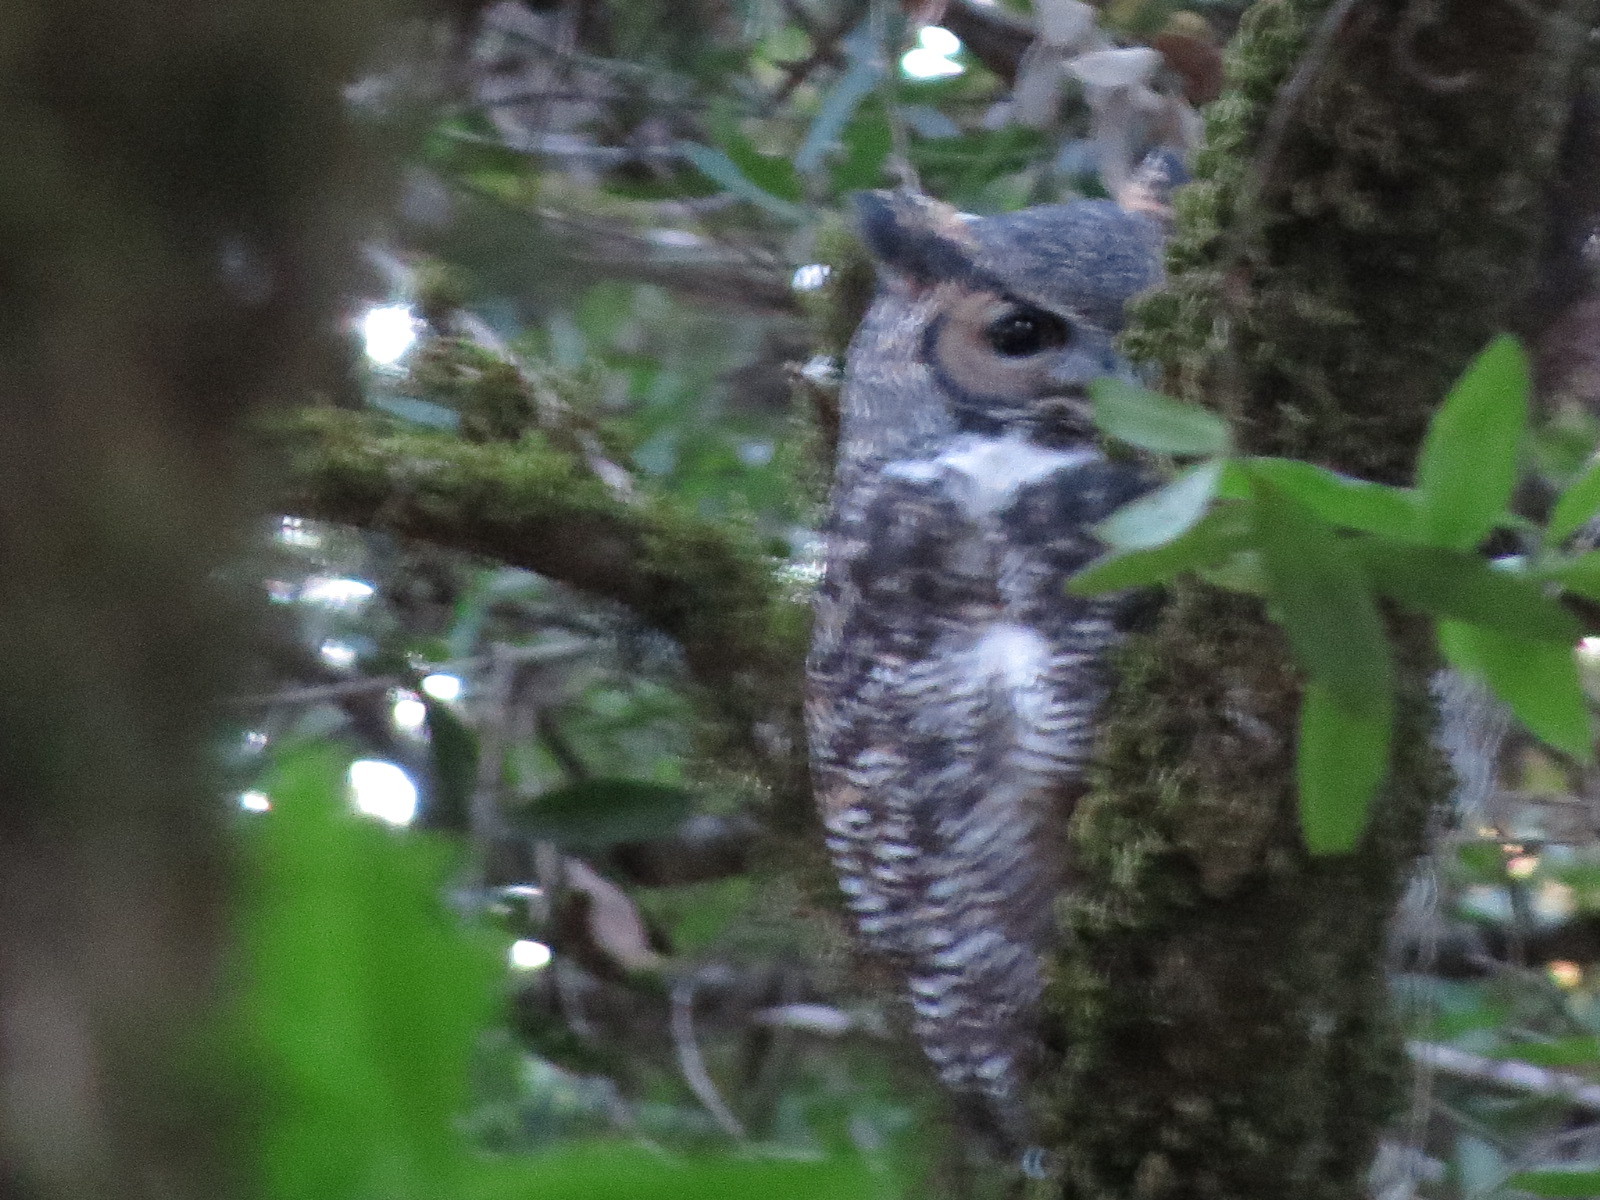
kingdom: Animalia
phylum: Chordata
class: Aves
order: Strigiformes
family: Strigidae
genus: Bubo
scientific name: Bubo virginianus
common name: Great horned owl
